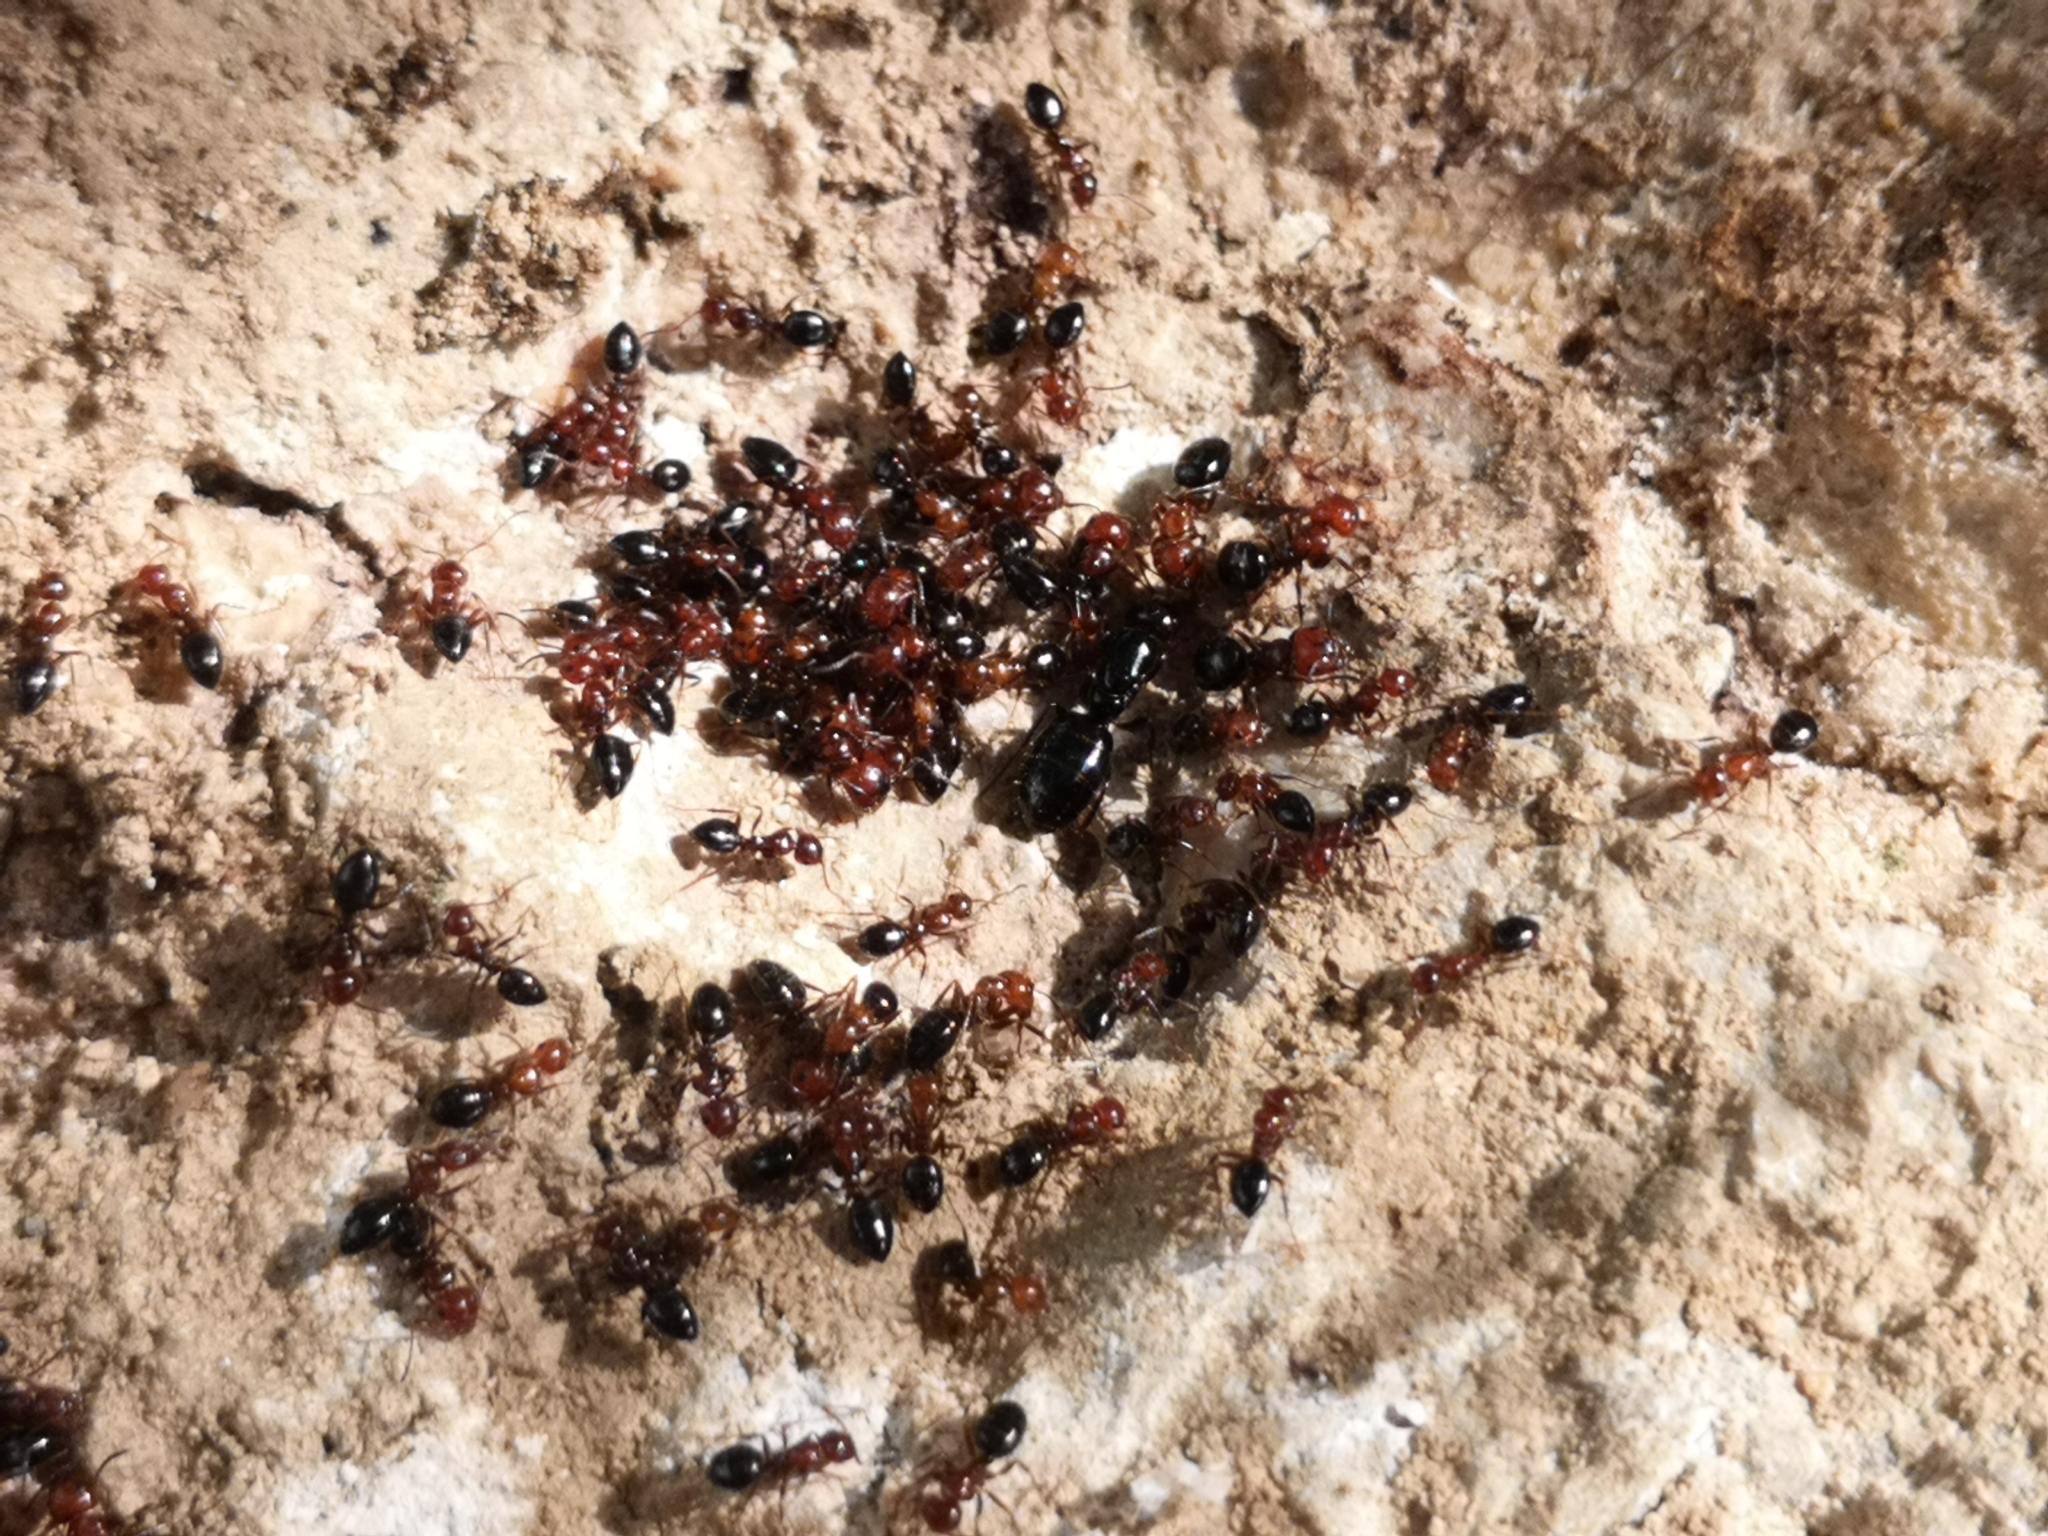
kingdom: Animalia
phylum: Arthropoda
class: Insecta
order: Hymenoptera
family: Formicidae
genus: Camponotus
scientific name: Camponotus lateralis
